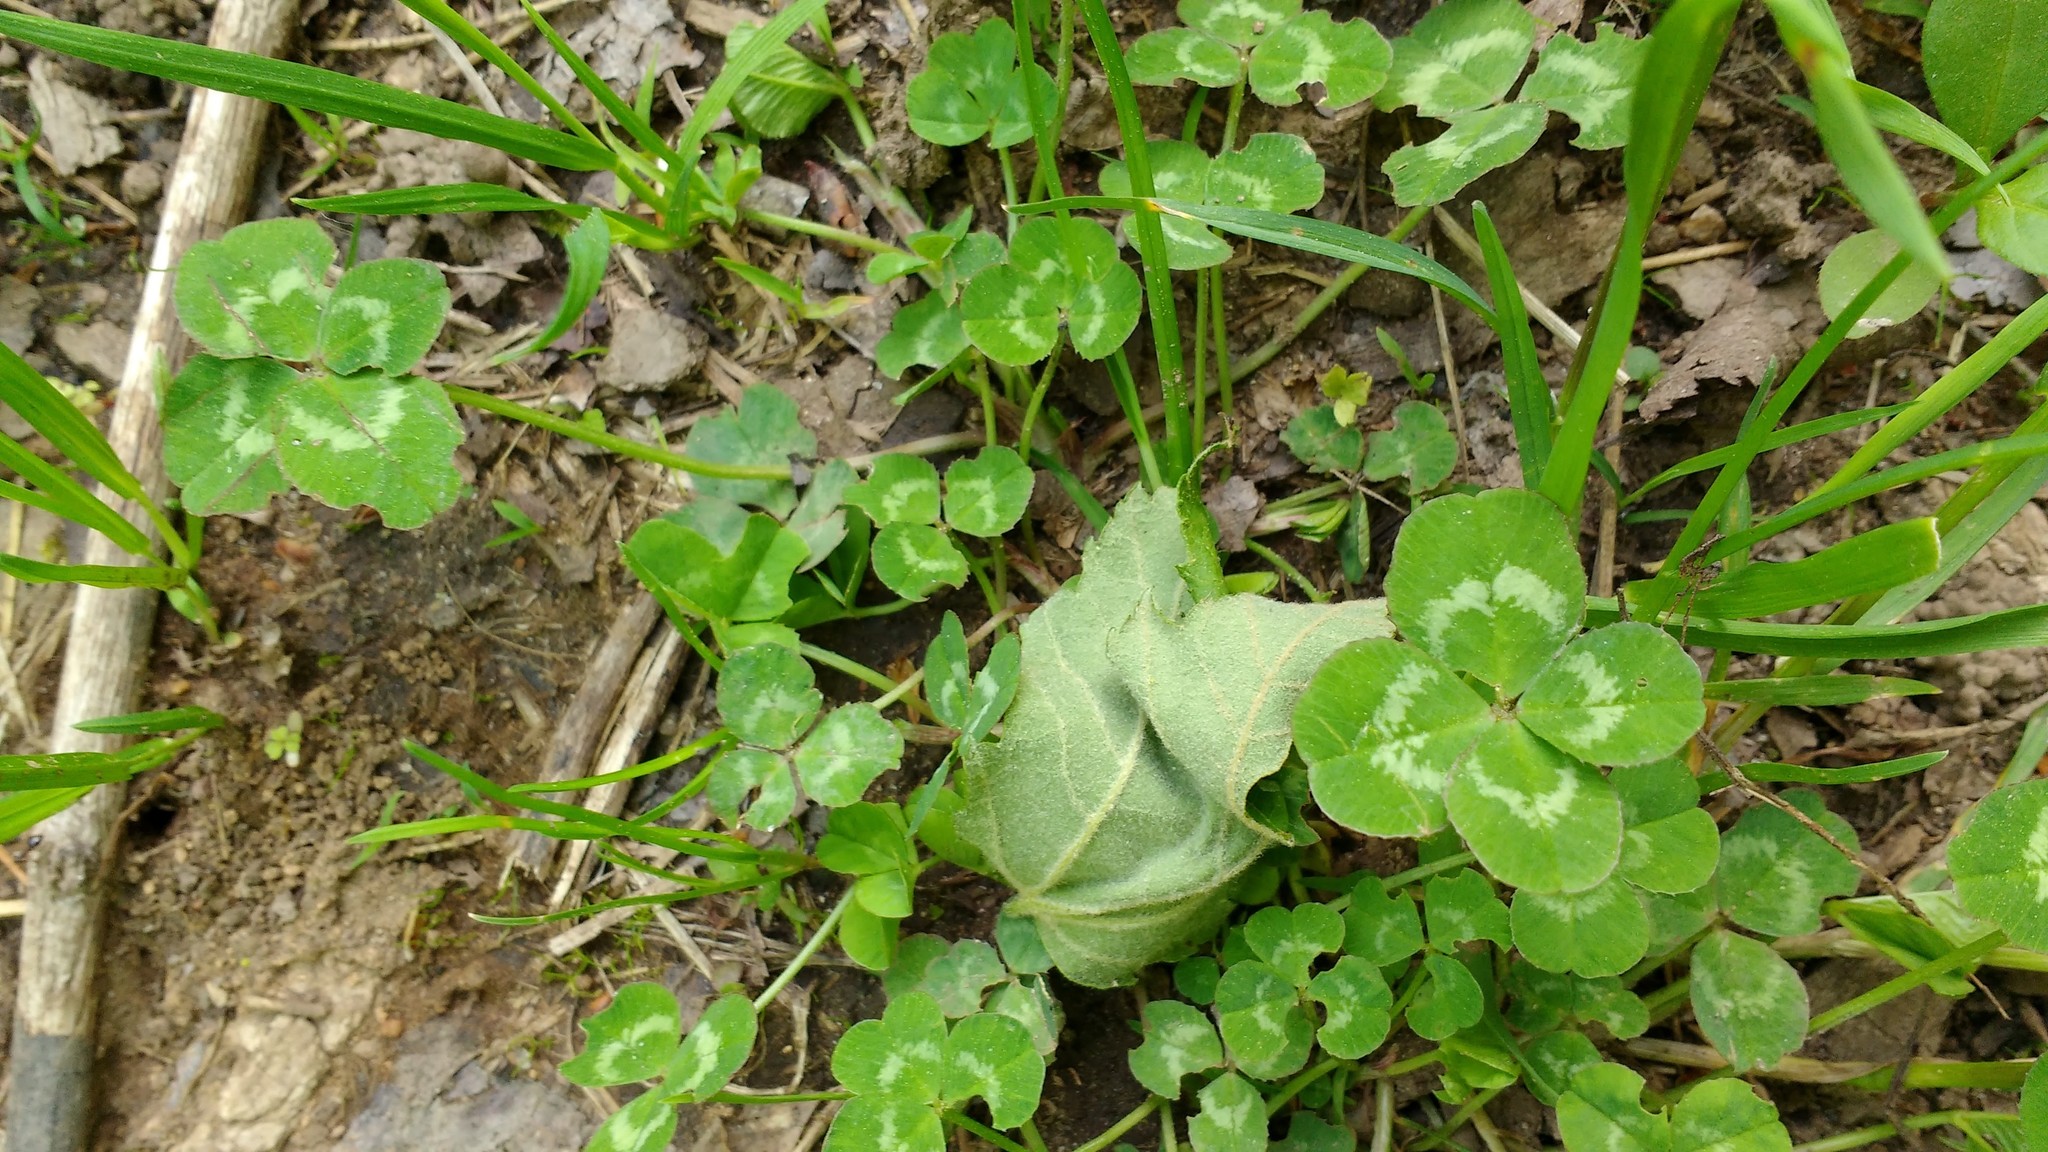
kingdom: Plantae
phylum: Tracheophyta
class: Magnoliopsida
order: Fabales
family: Fabaceae
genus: Trifolium
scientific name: Trifolium repens
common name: White clover
